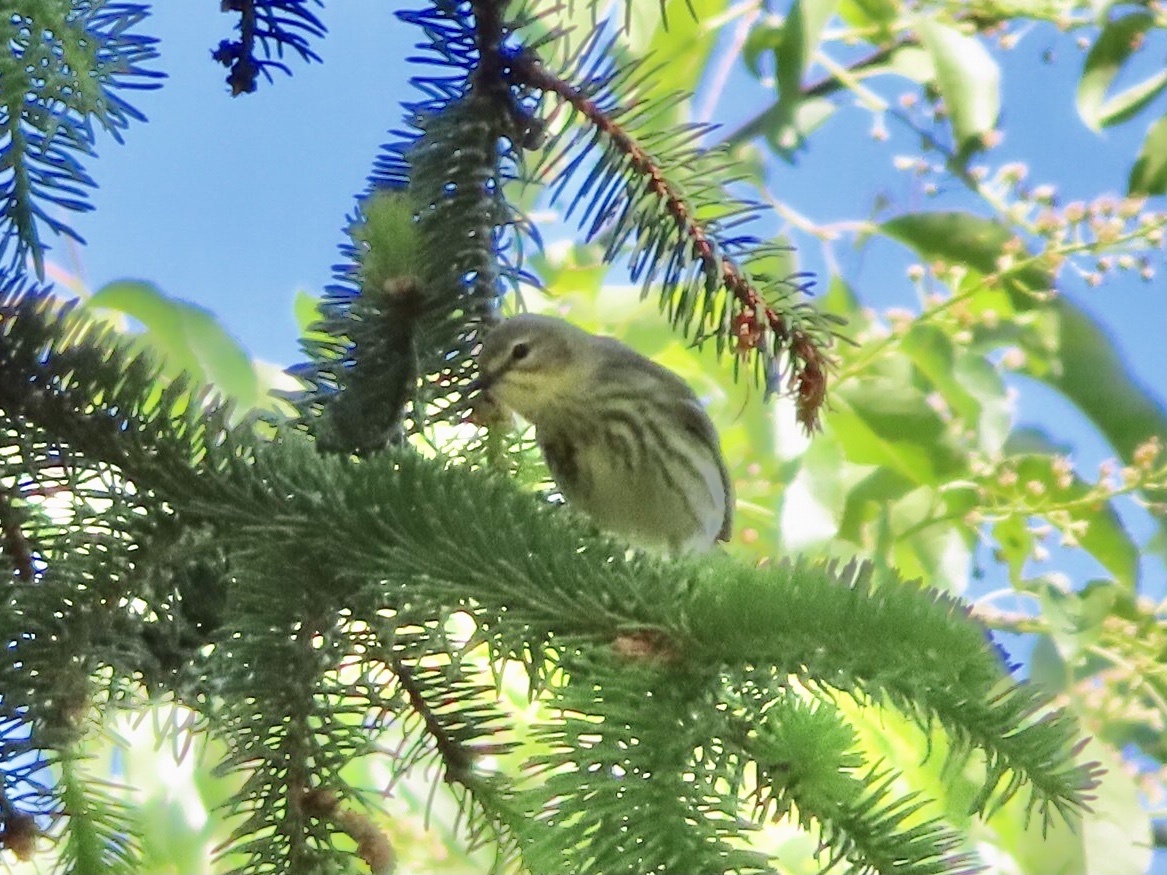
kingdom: Animalia
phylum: Chordata
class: Aves
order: Passeriformes
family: Parulidae
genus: Setophaga
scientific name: Setophaga tigrina
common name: Cape may warbler
